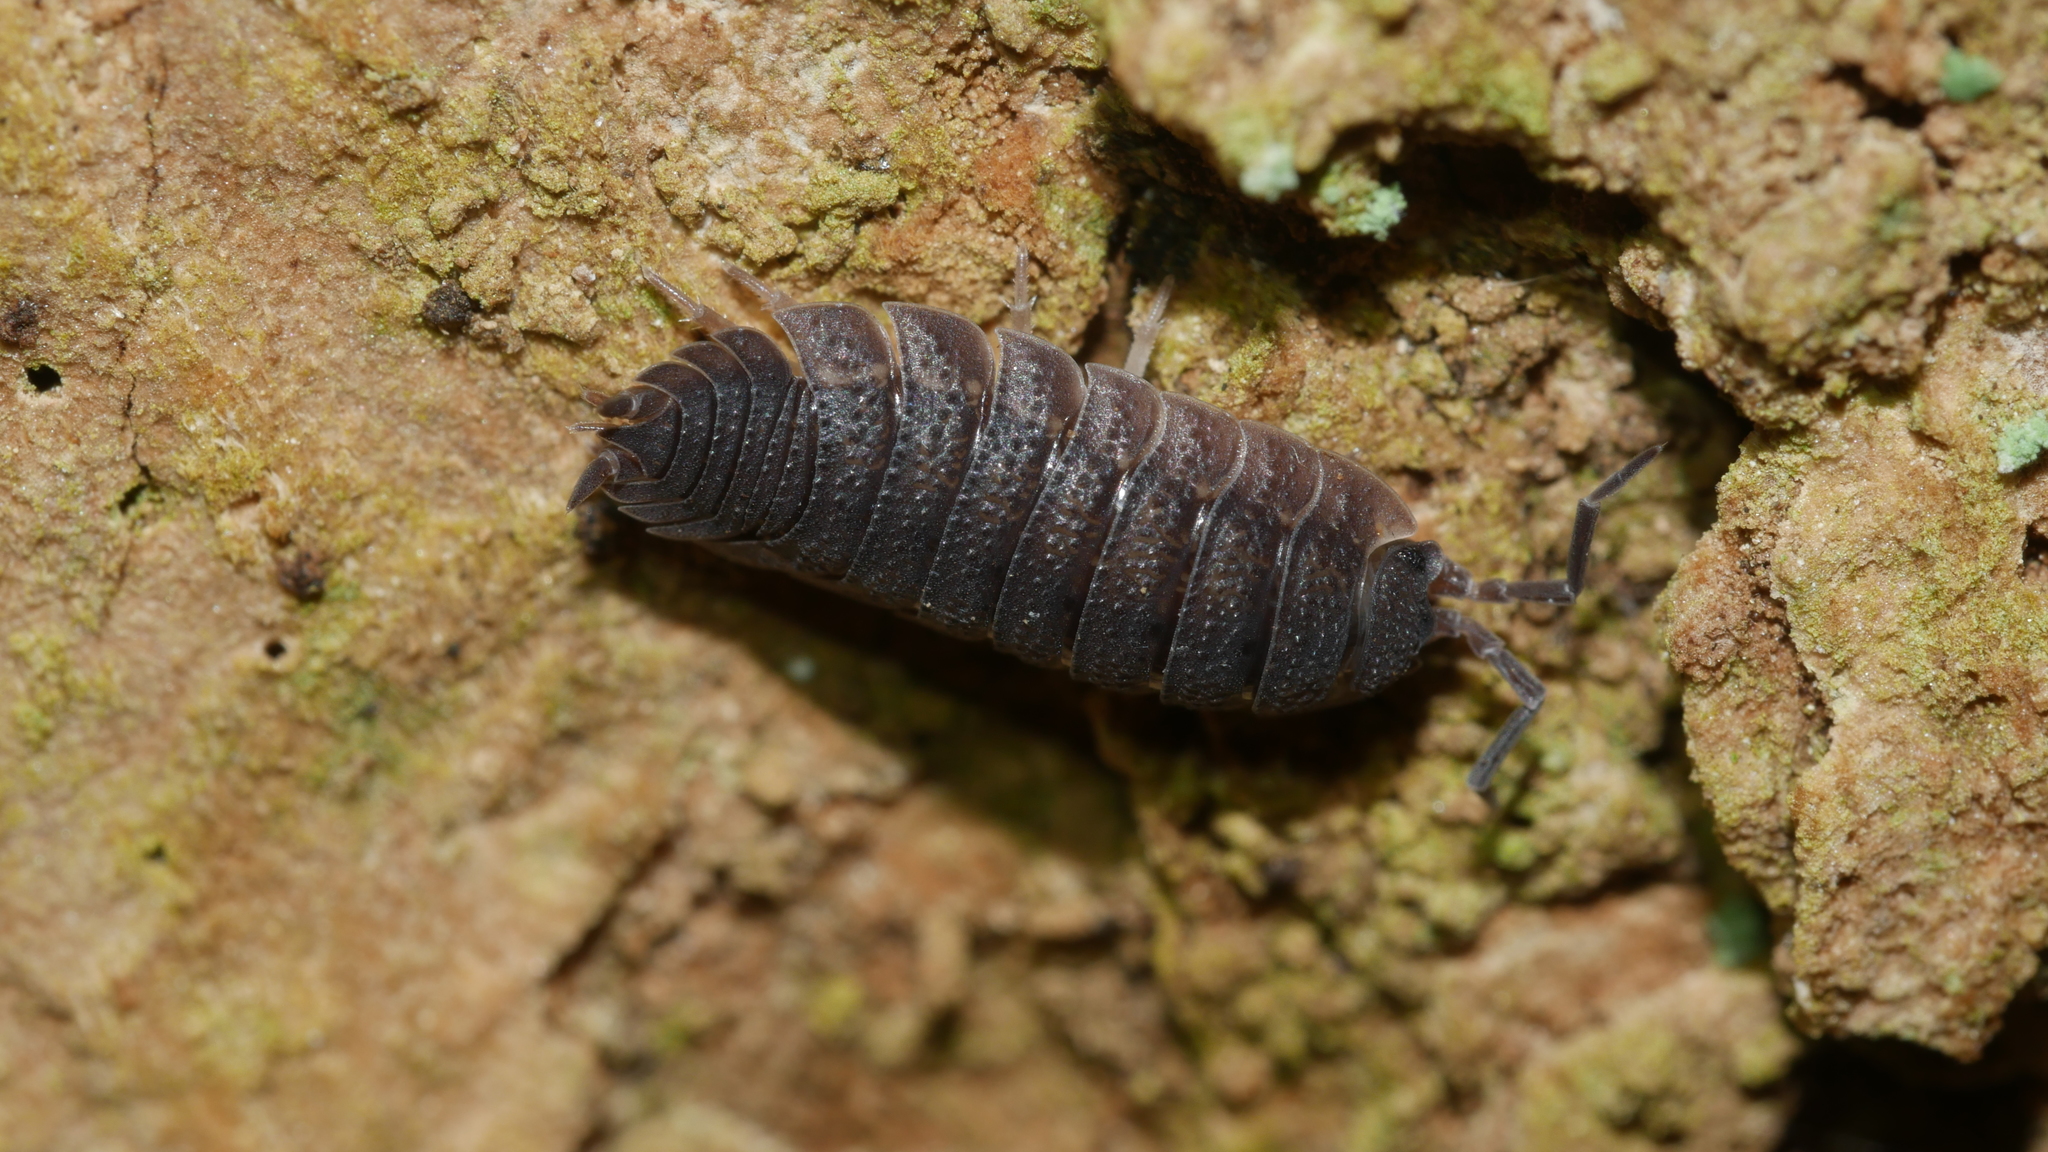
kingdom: Animalia
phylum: Arthropoda
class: Malacostraca
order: Isopoda
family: Porcellionidae
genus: Porcellio
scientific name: Porcellio scaber
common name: Common rough woodlouse
